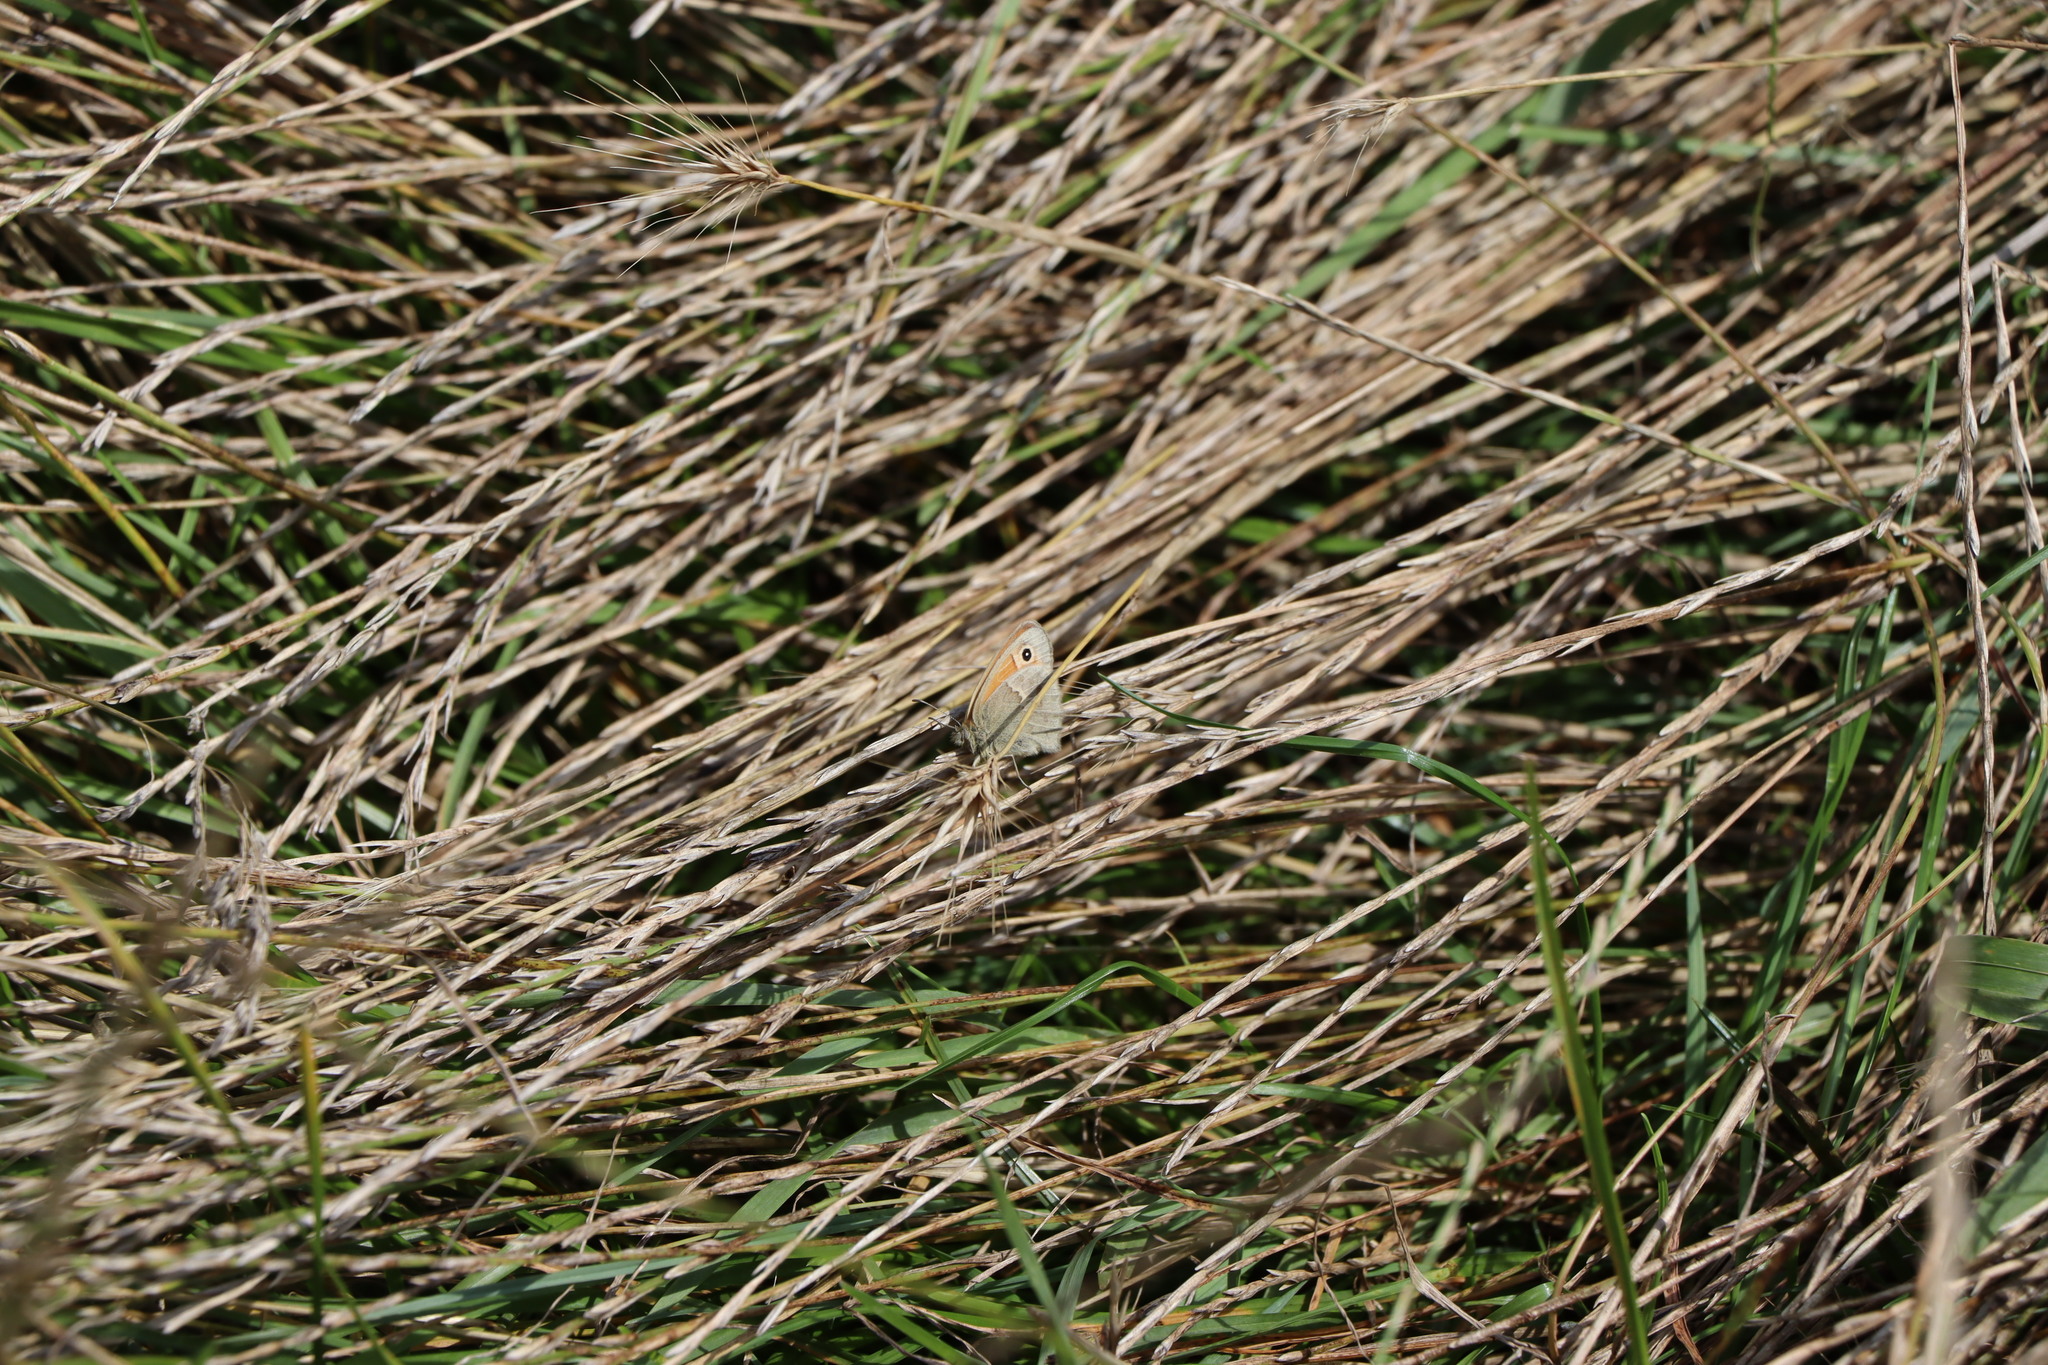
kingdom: Animalia
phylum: Arthropoda
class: Insecta
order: Lepidoptera
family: Nymphalidae
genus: Coenonympha
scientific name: Coenonympha pamphilus
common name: Small heath
